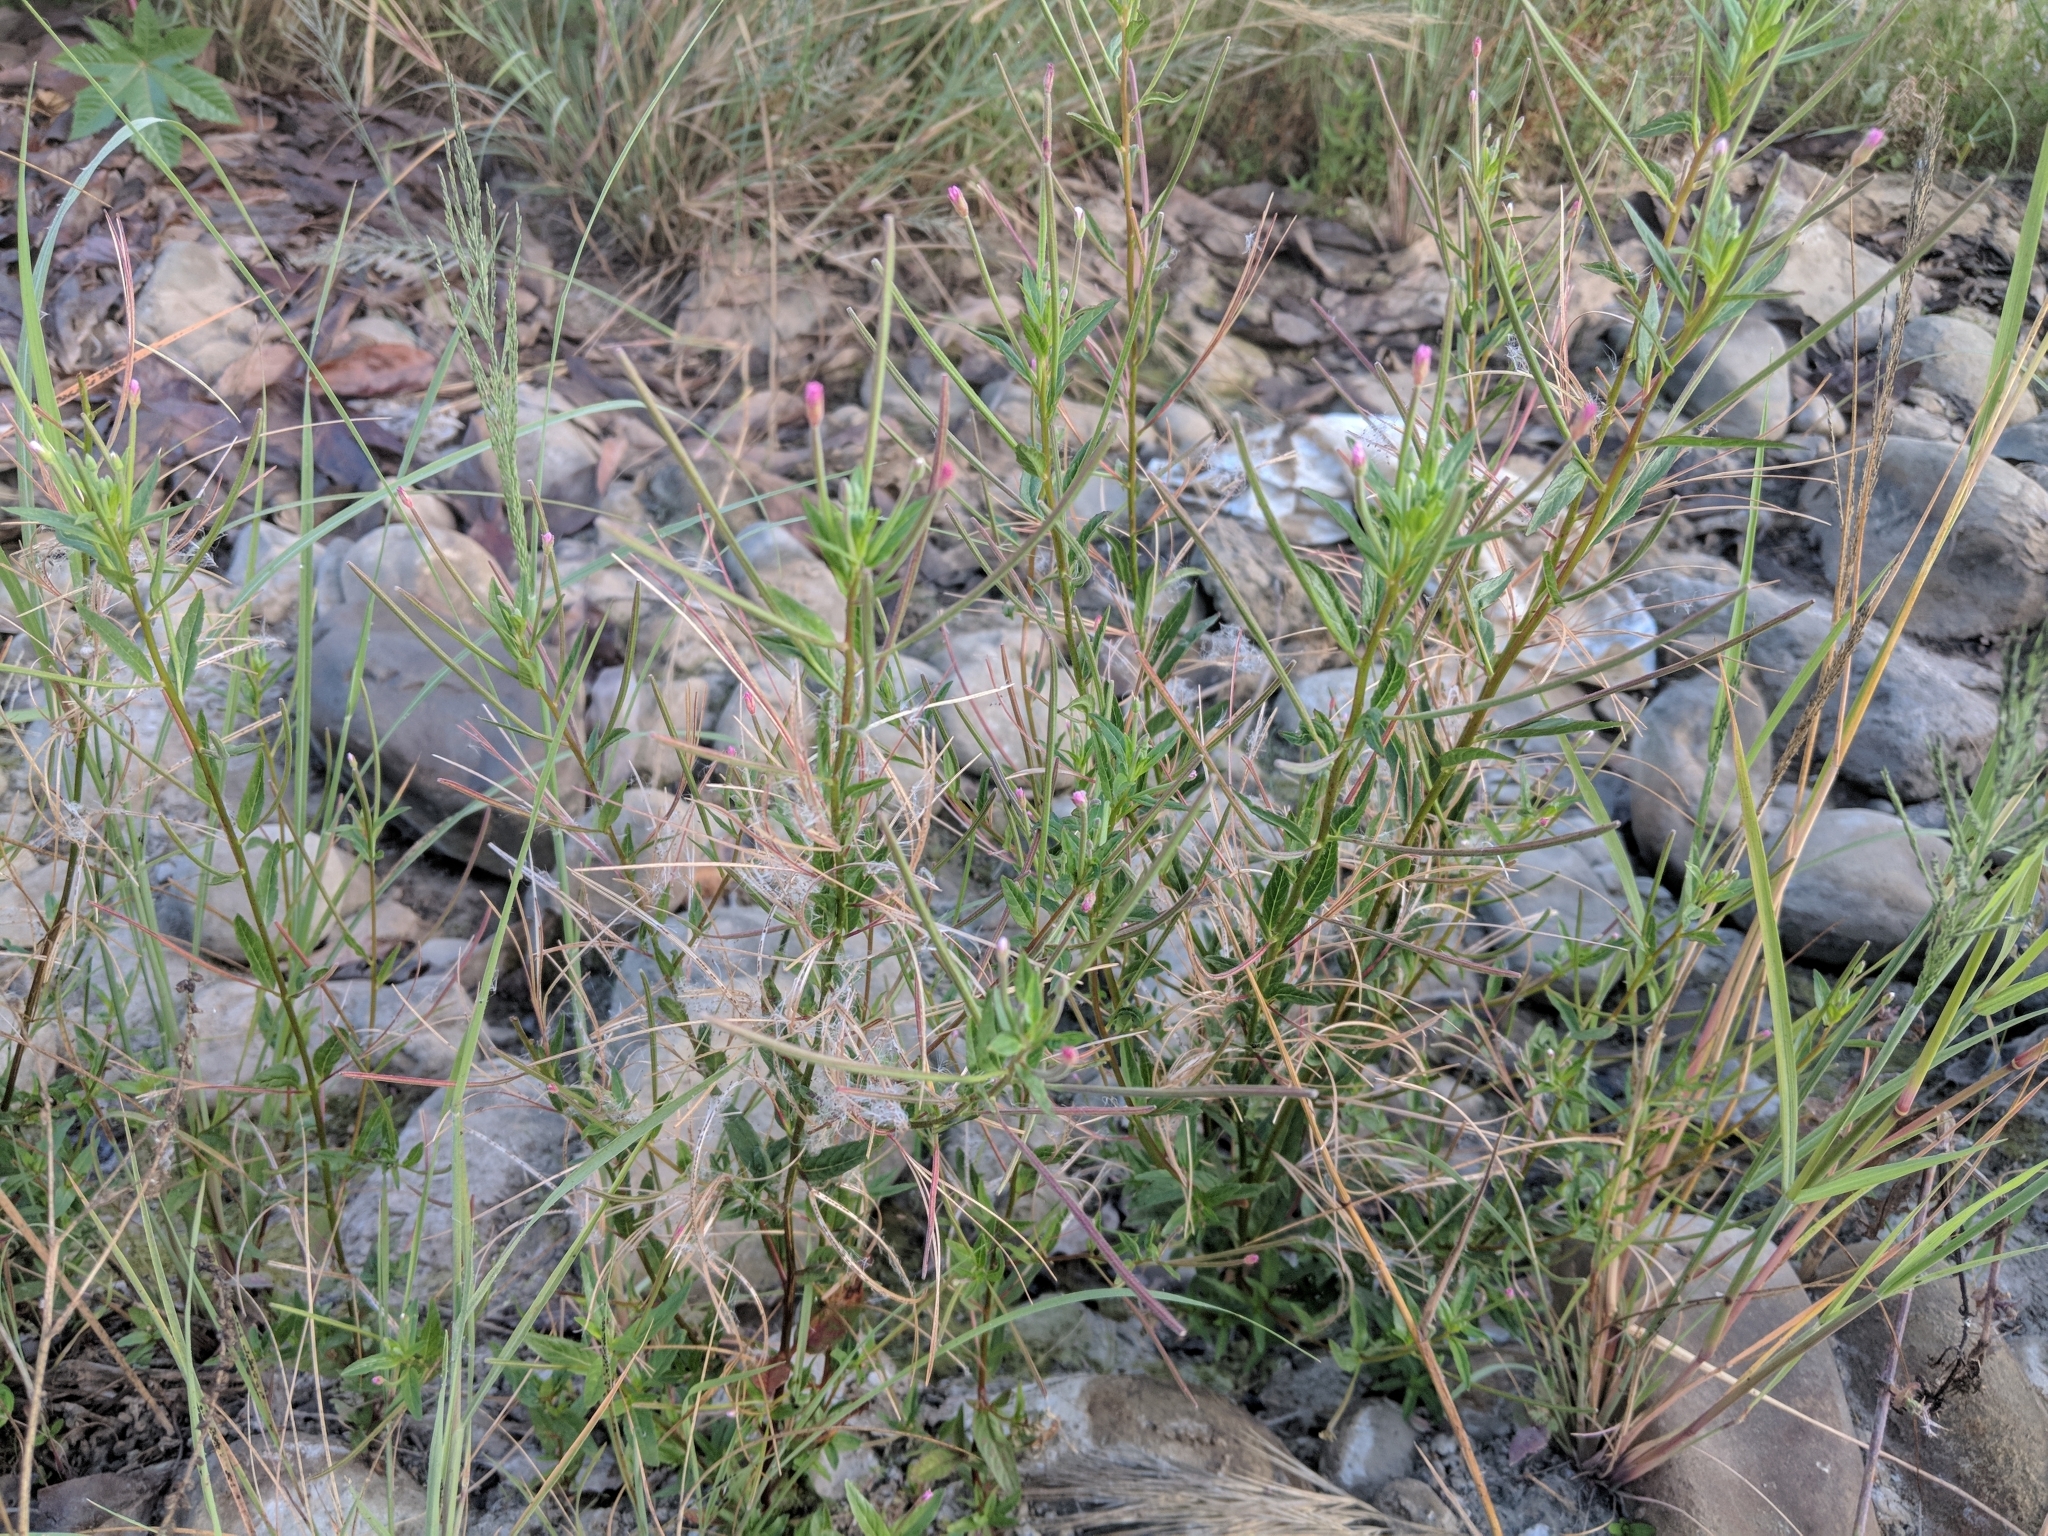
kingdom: Plantae
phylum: Tracheophyta
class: Magnoliopsida
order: Myrtales
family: Onagraceae
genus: Epilobium
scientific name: Epilobium ciliatum
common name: American willowherb
